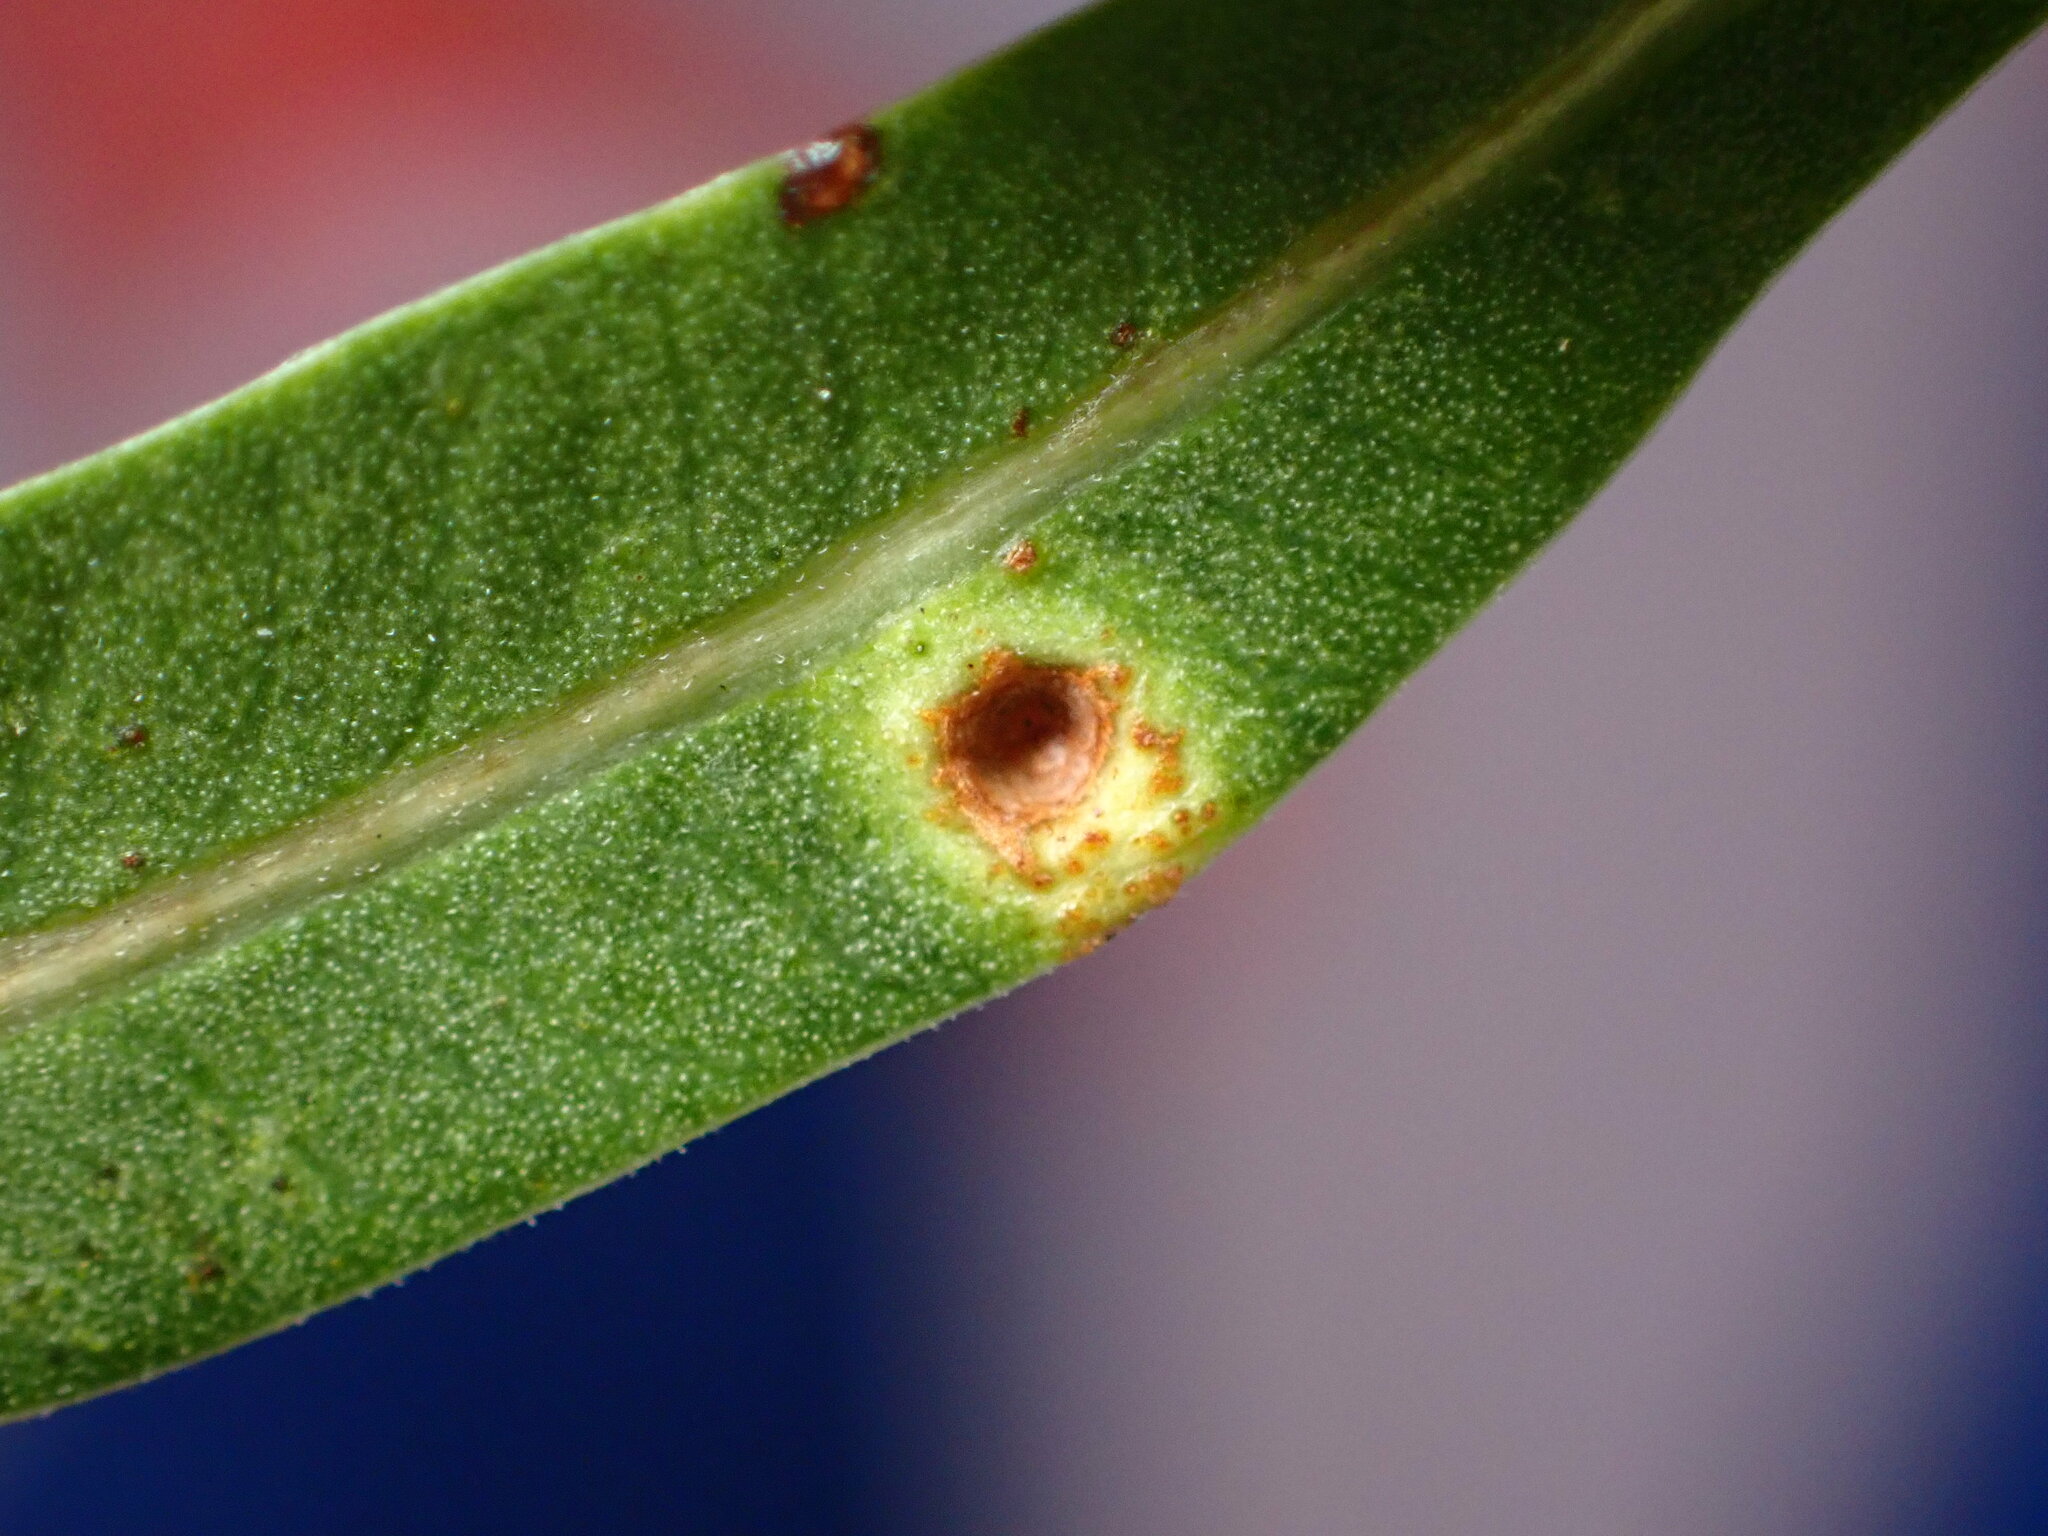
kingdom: Animalia
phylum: Arthropoda
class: Insecta
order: Hemiptera
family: Calophyidae
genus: Calophya
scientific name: Calophya schini
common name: Pepper tree psyllid
